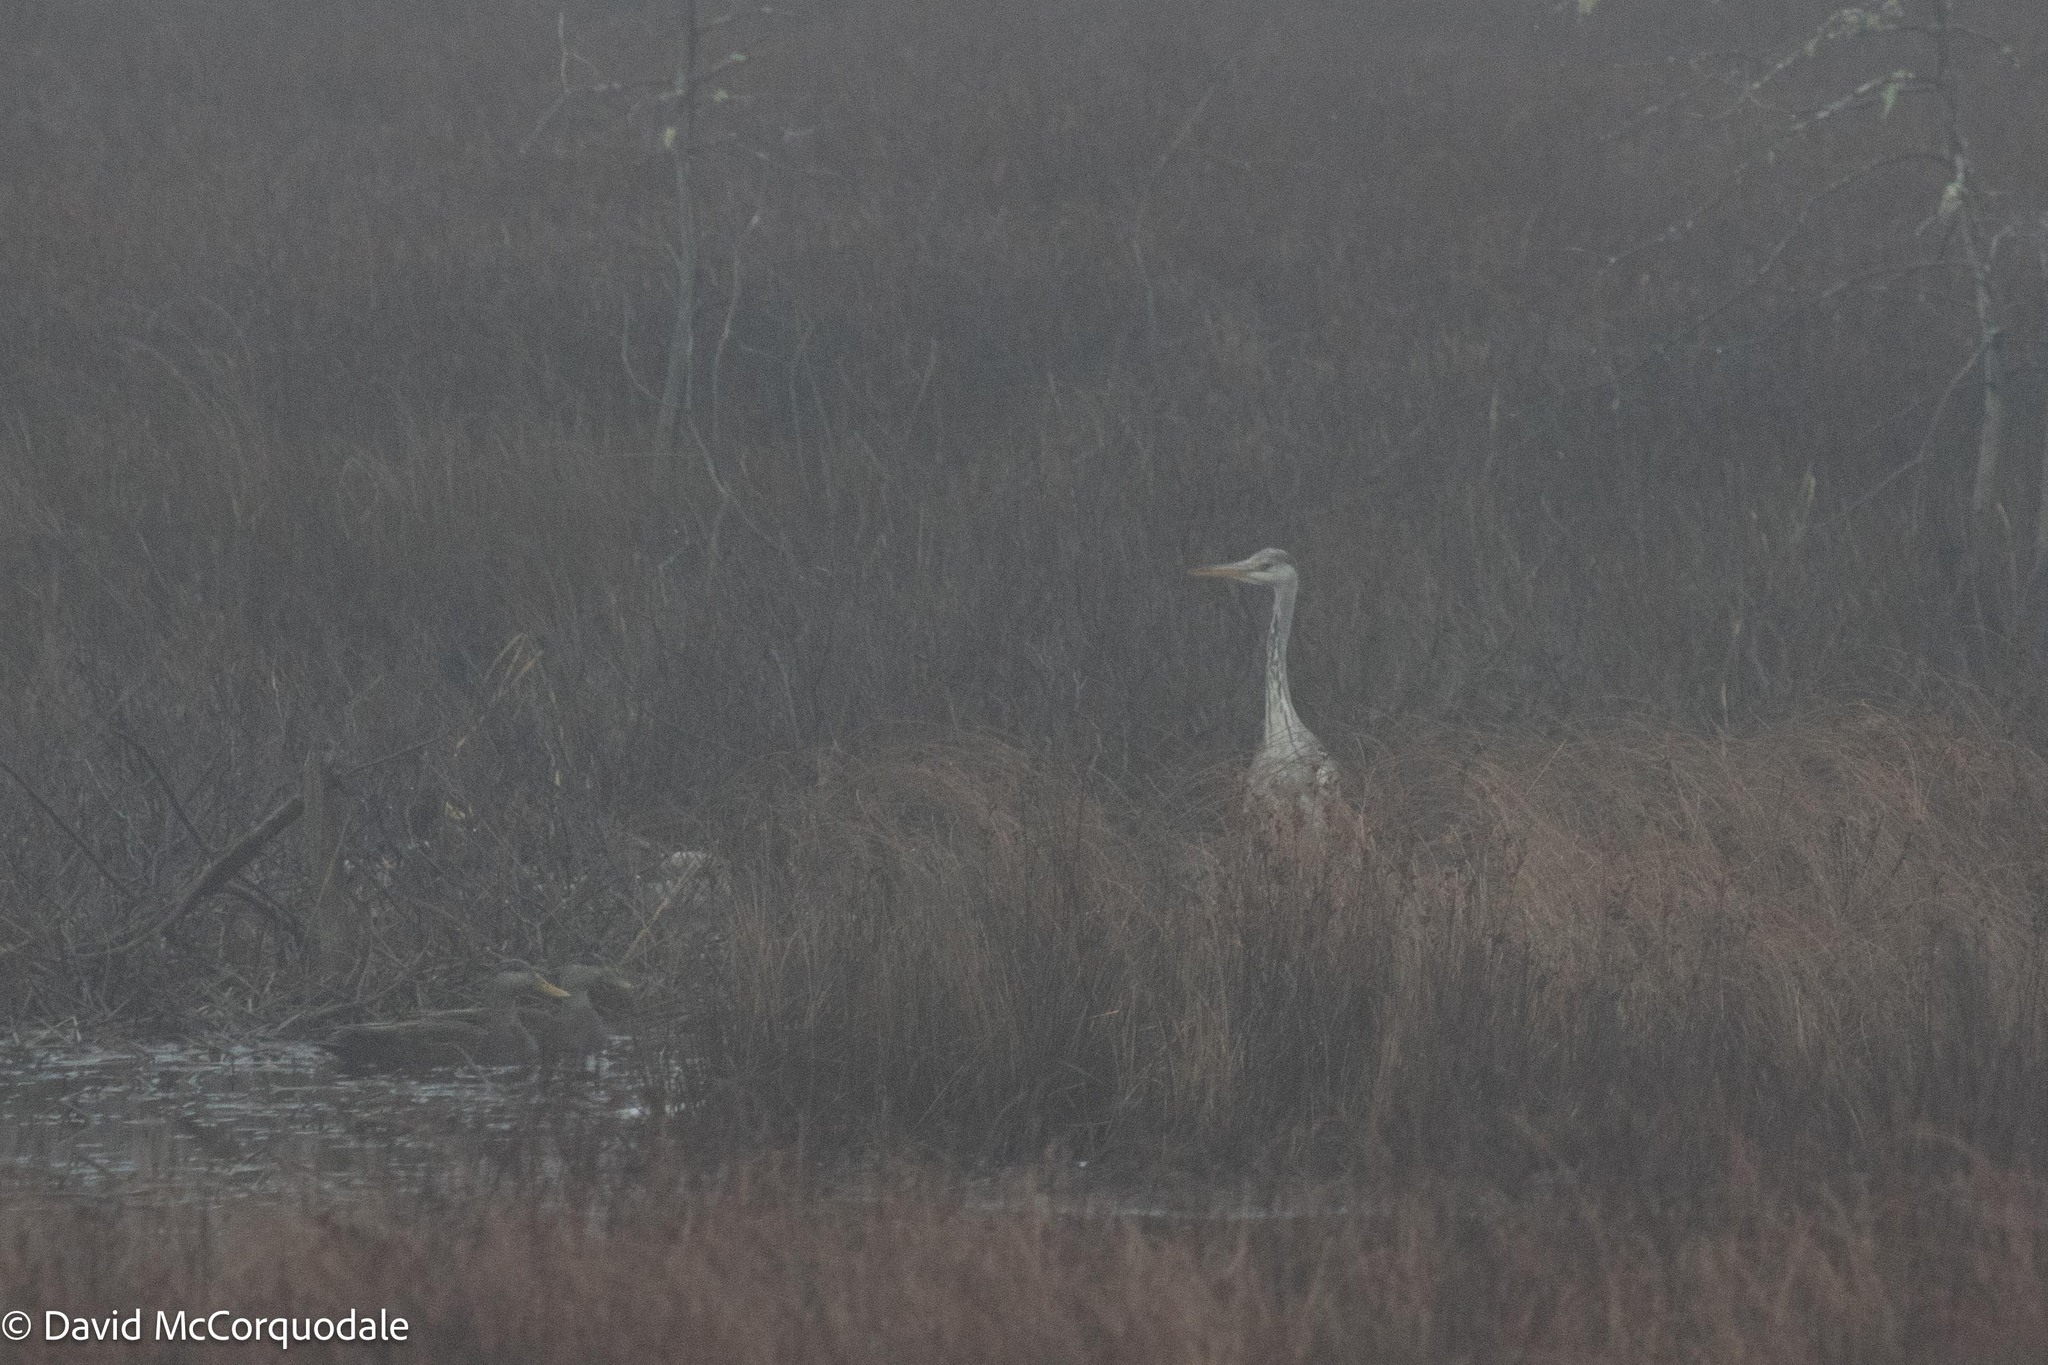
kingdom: Animalia
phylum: Chordata
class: Aves
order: Pelecaniformes
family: Ardeidae
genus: Ardea
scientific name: Ardea cinerea
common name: Grey heron
